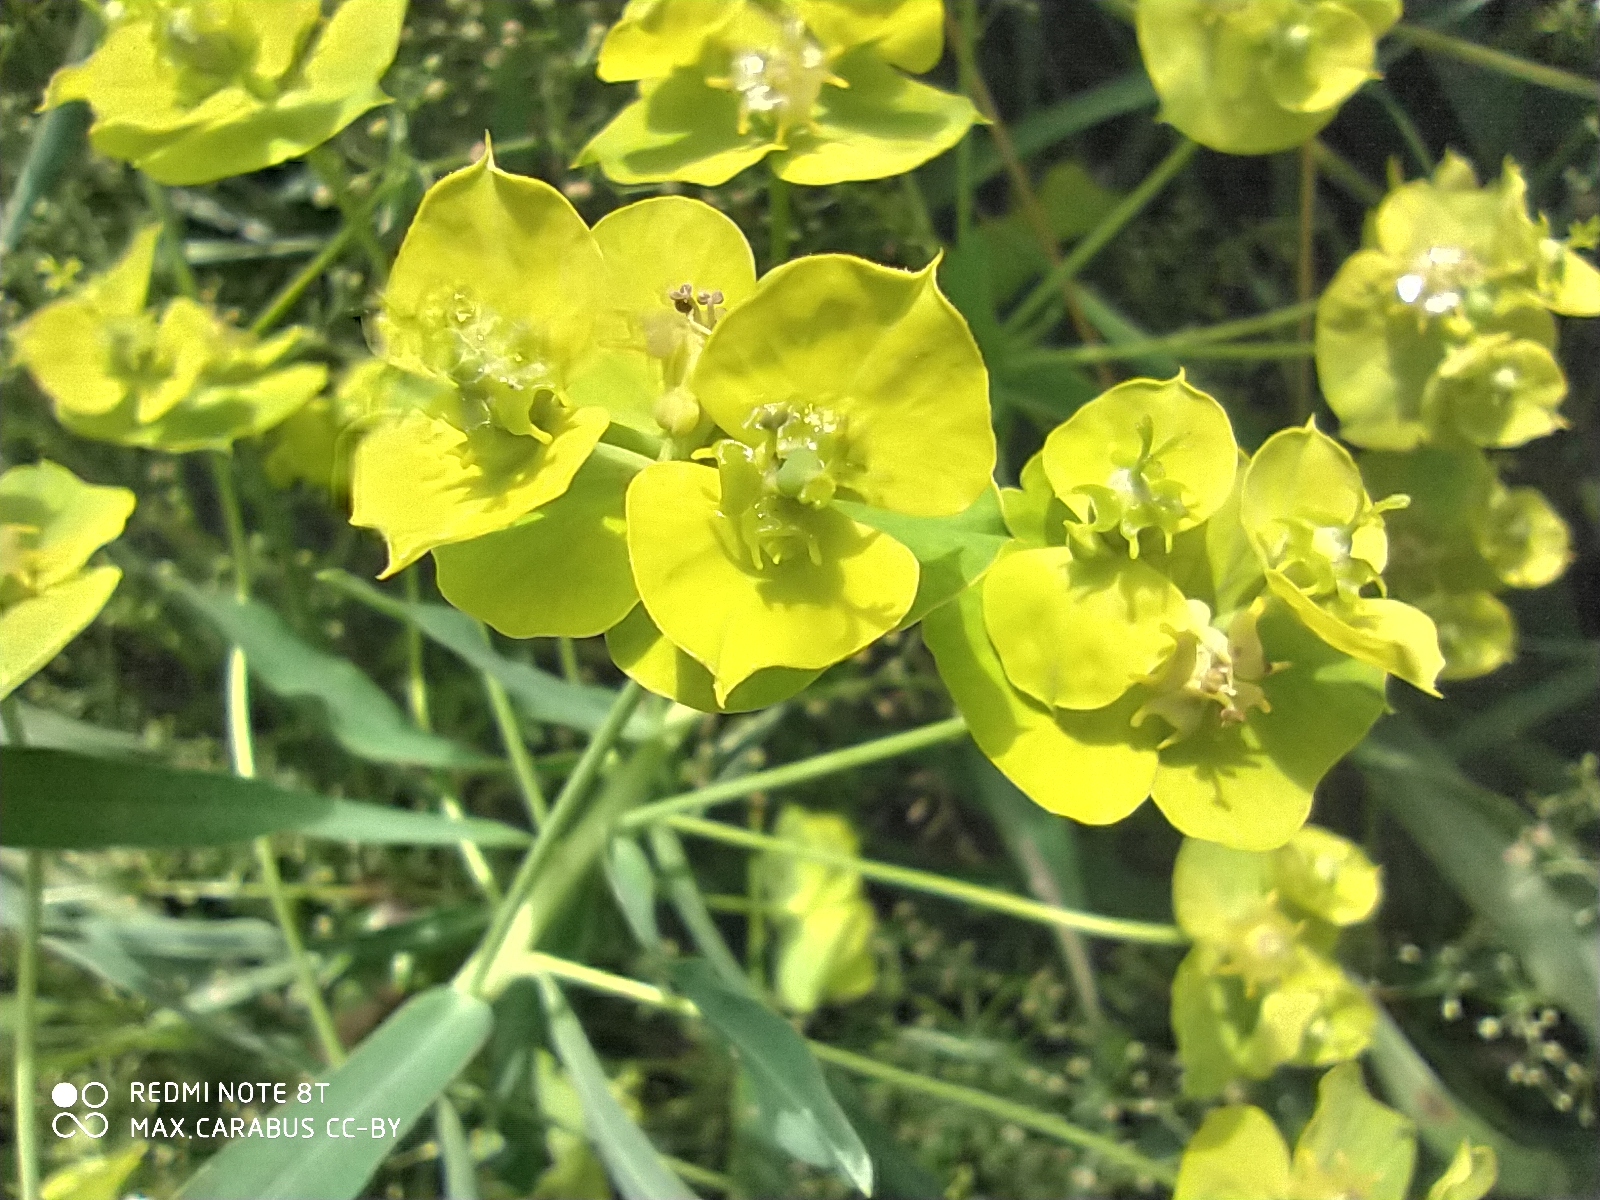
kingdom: Plantae
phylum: Tracheophyta
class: Magnoliopsida
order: Malpighiales
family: Euphorbiaceae
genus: Euphorbia
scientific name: Euphorbia virgata
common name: Leafy spurge
